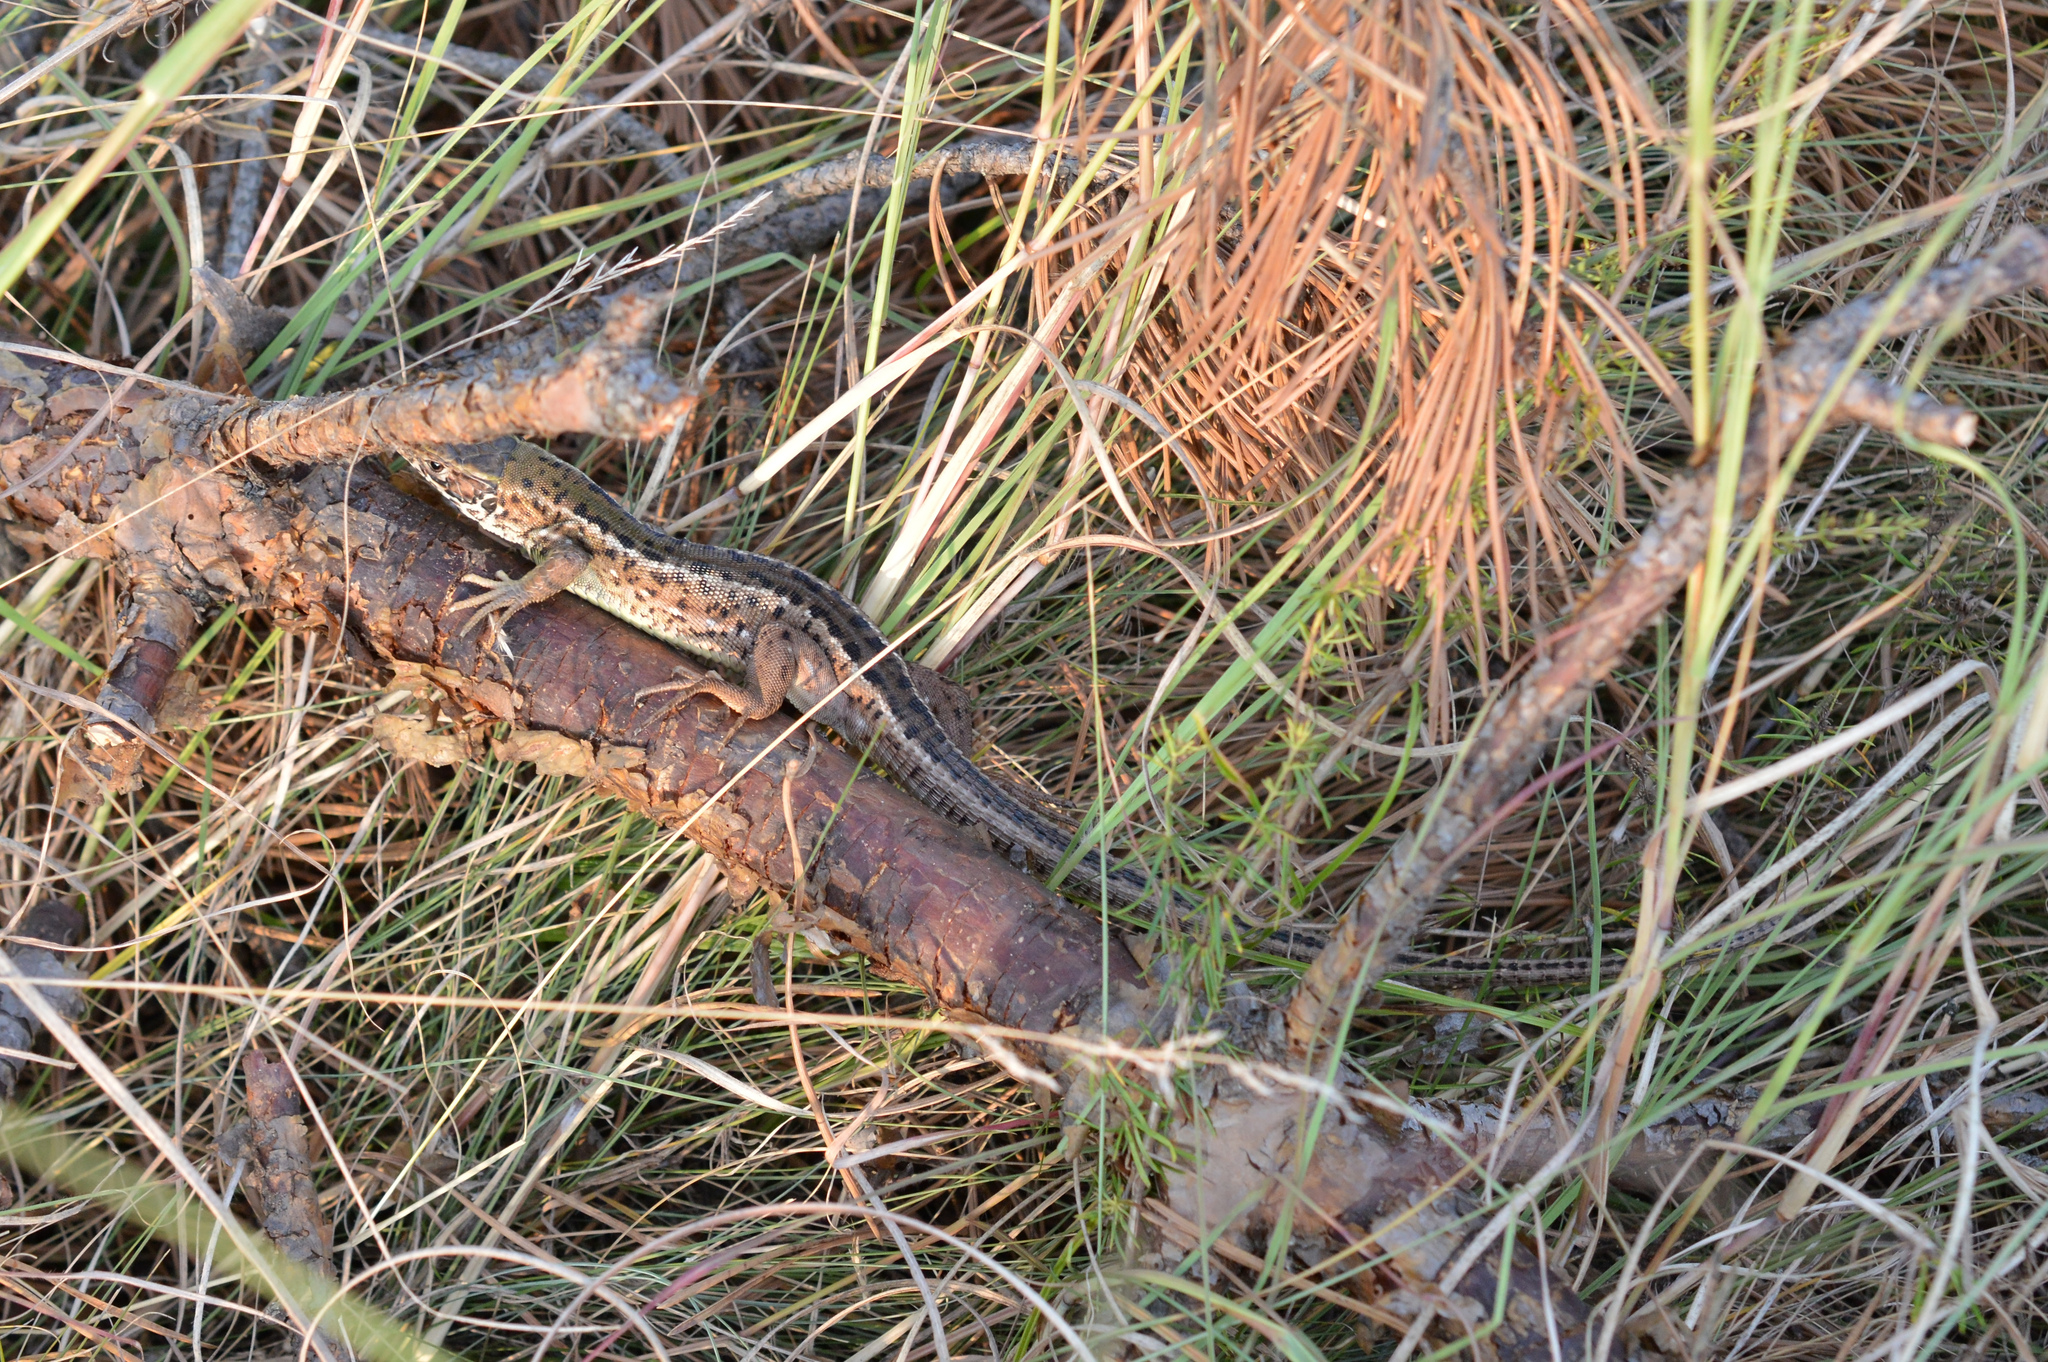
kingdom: Animalia
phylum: Chordata
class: Squamata
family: Lacertidae
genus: Lacerta
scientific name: Lacerta viridis
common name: European green lizard
